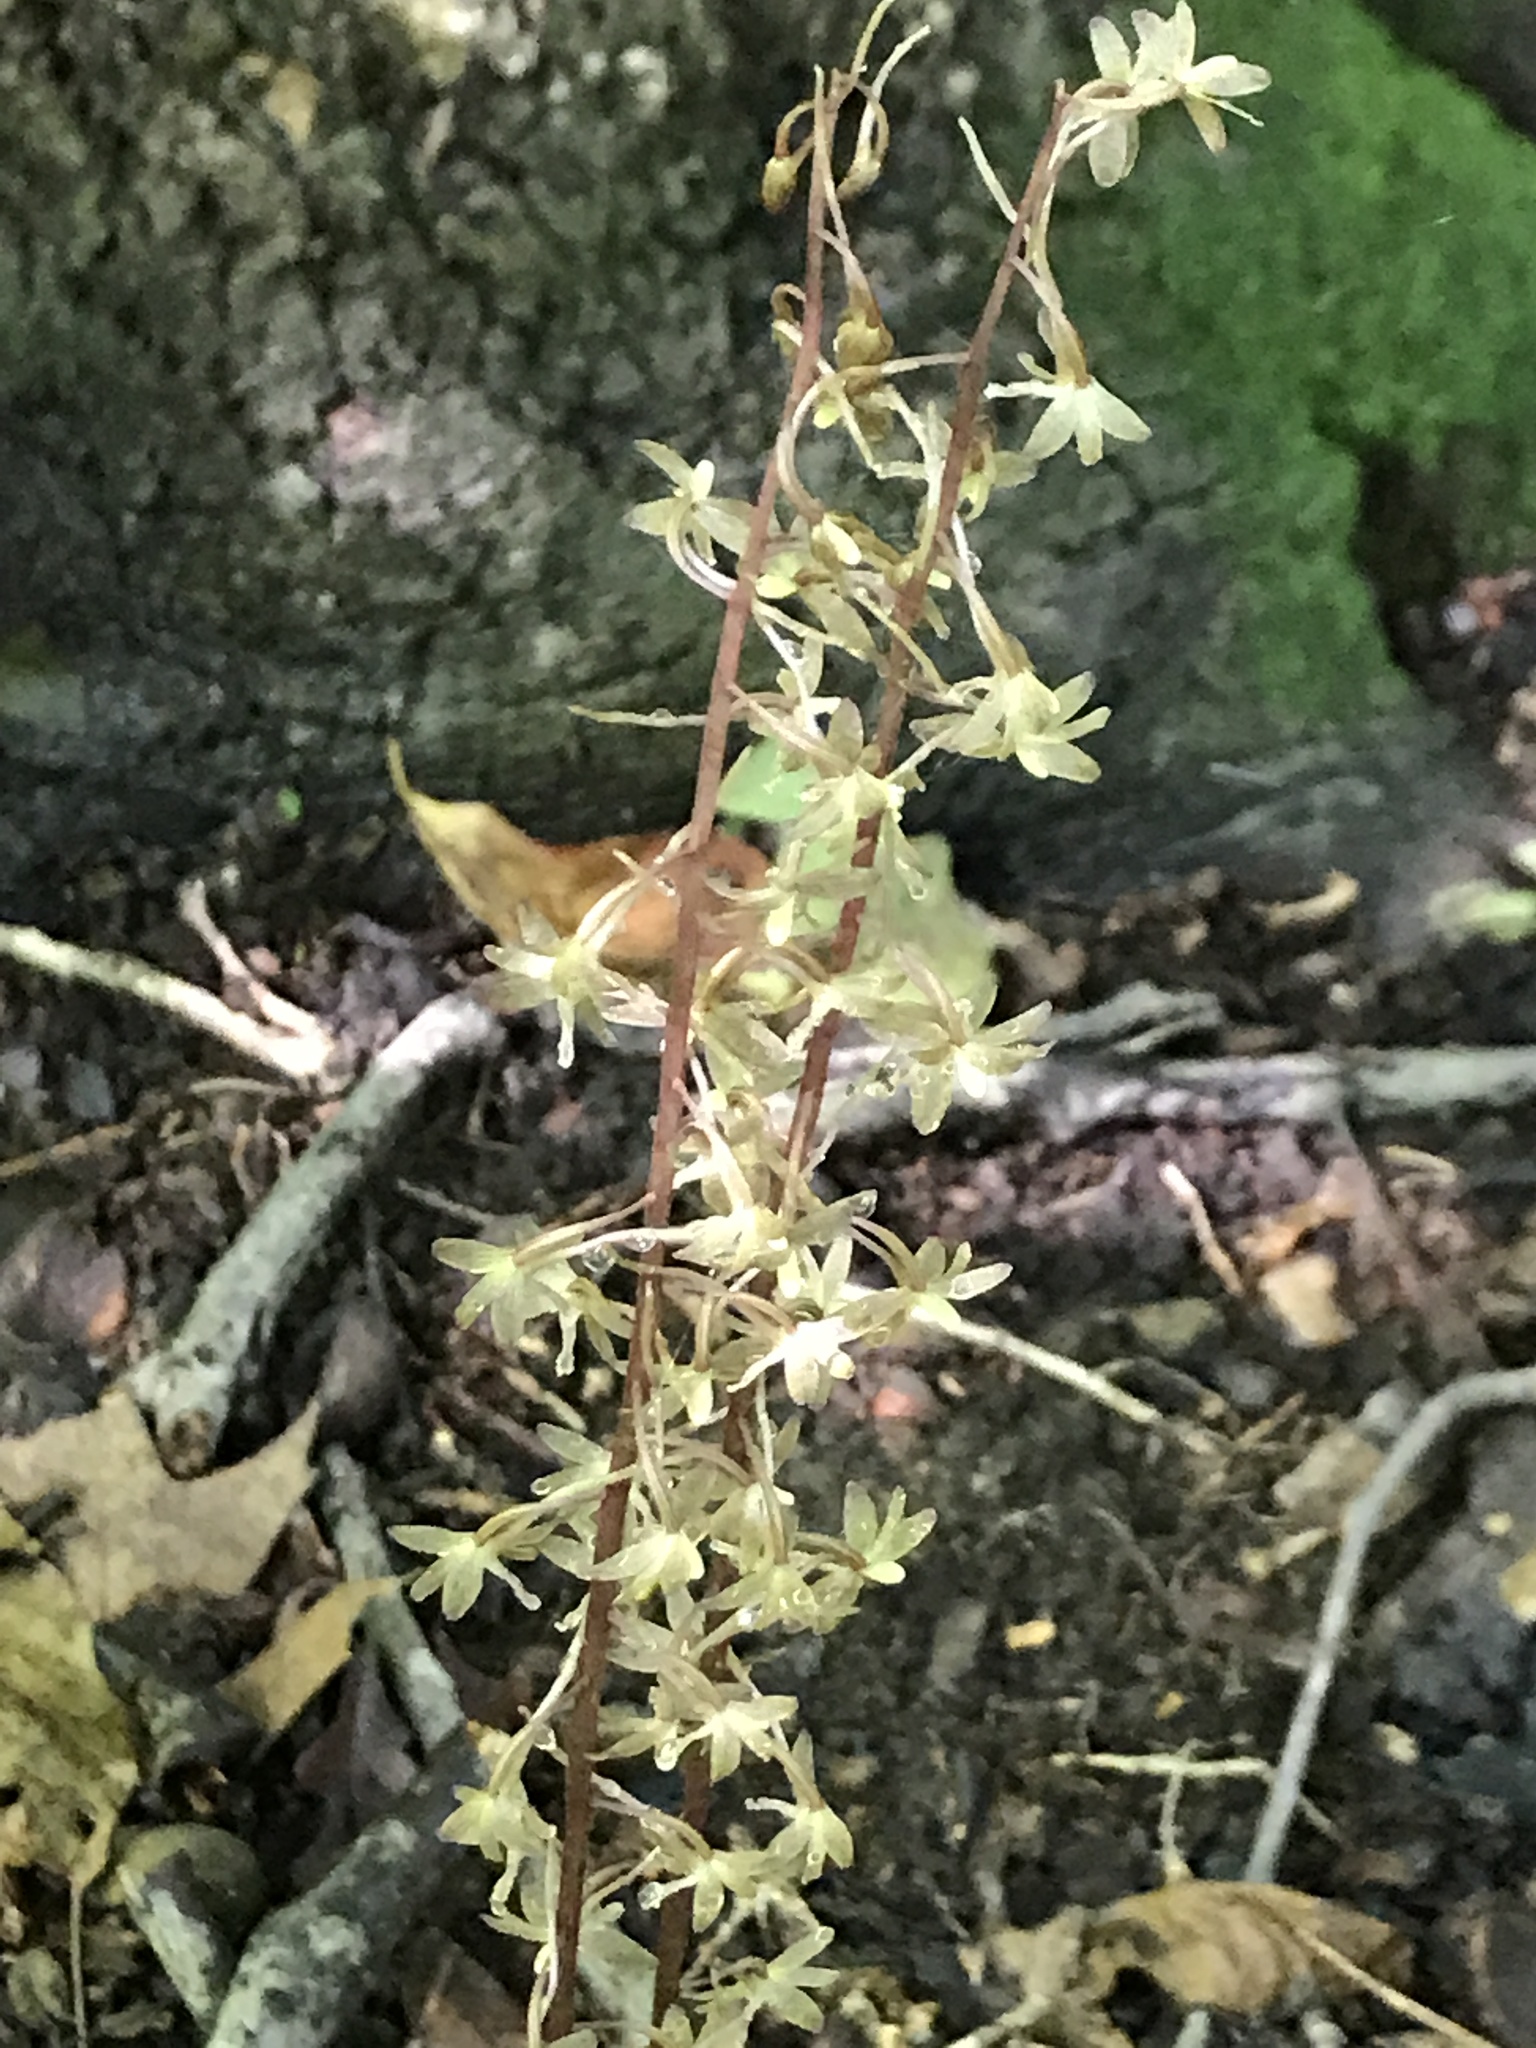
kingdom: Plantae
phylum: Tracheophyta
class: Liliopsida
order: Asparagales
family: Orchidaceae
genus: Tipularia
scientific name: Tipularia discolor
